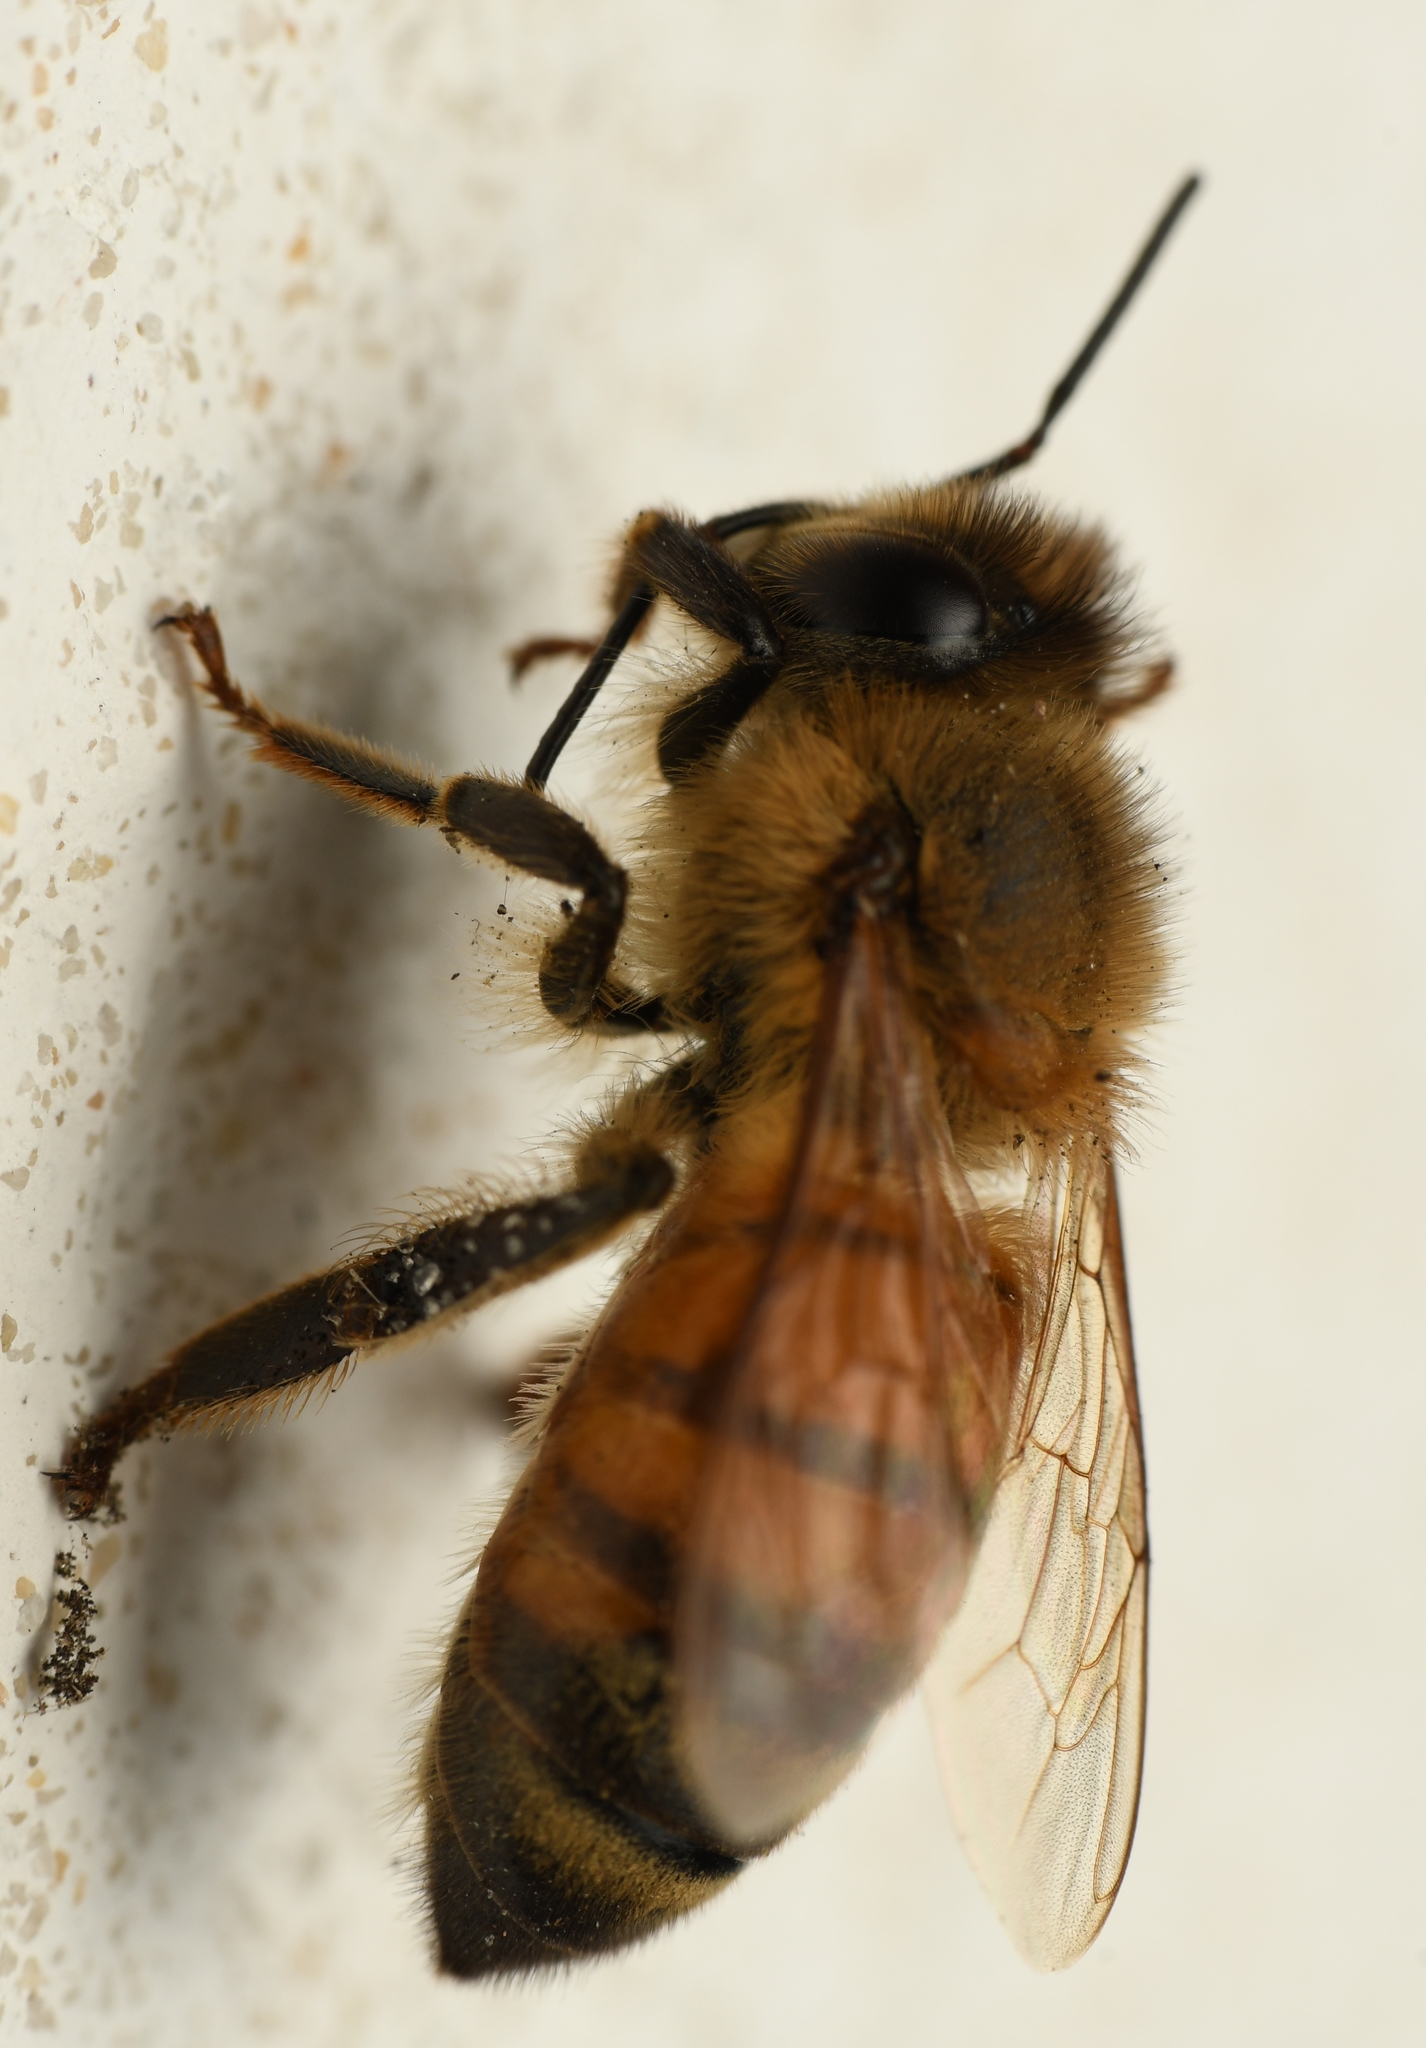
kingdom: Animalia
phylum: Arthropoda
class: Insecta
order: Hymenoptera
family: Apidae
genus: Apis
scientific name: Apis mellifera
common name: Honey bee
